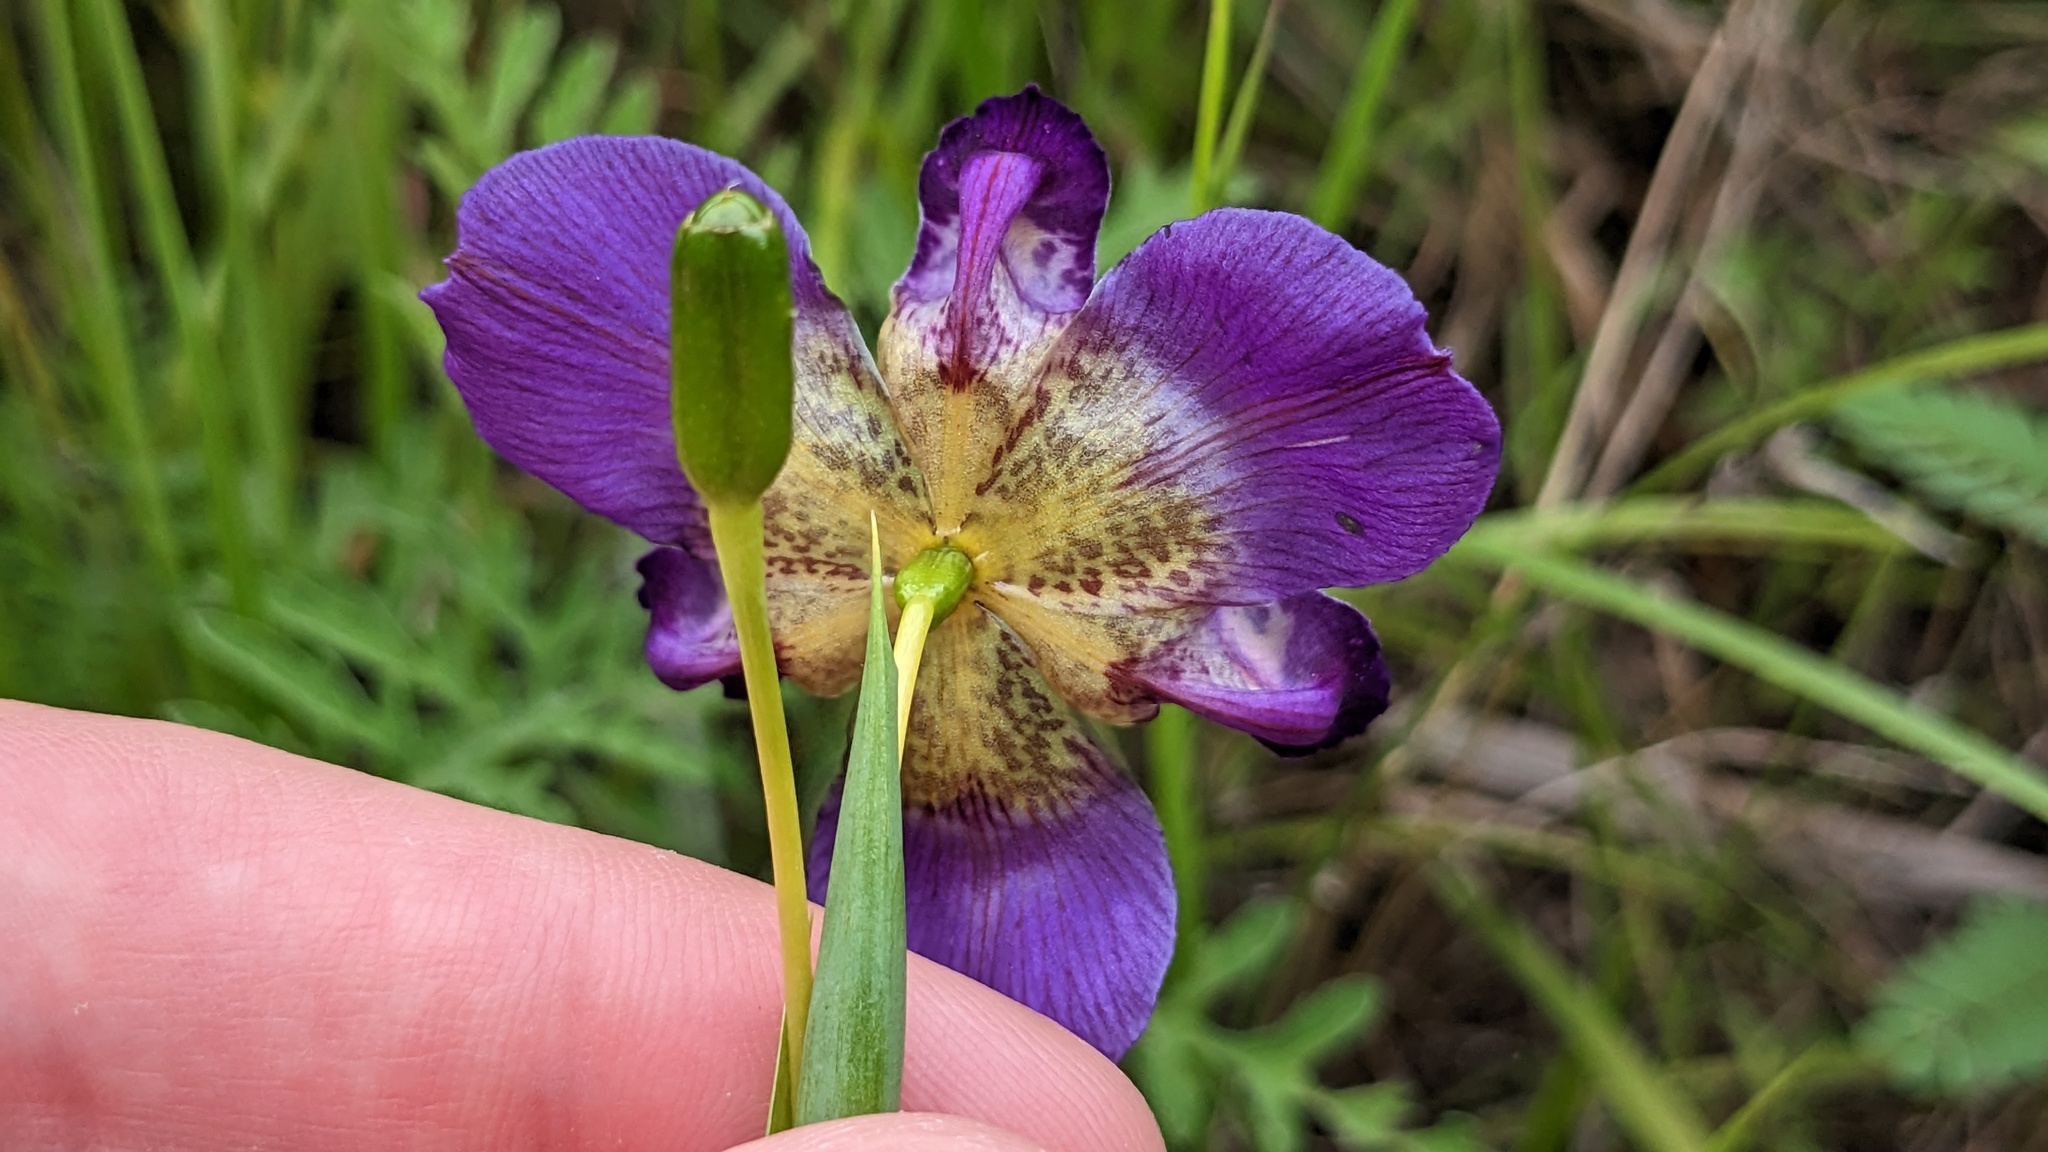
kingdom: Plantae
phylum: Tracheophyta
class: Liliopsida
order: Asparagales
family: Iridaceae
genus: Alophia
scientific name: Alophia drummondii
